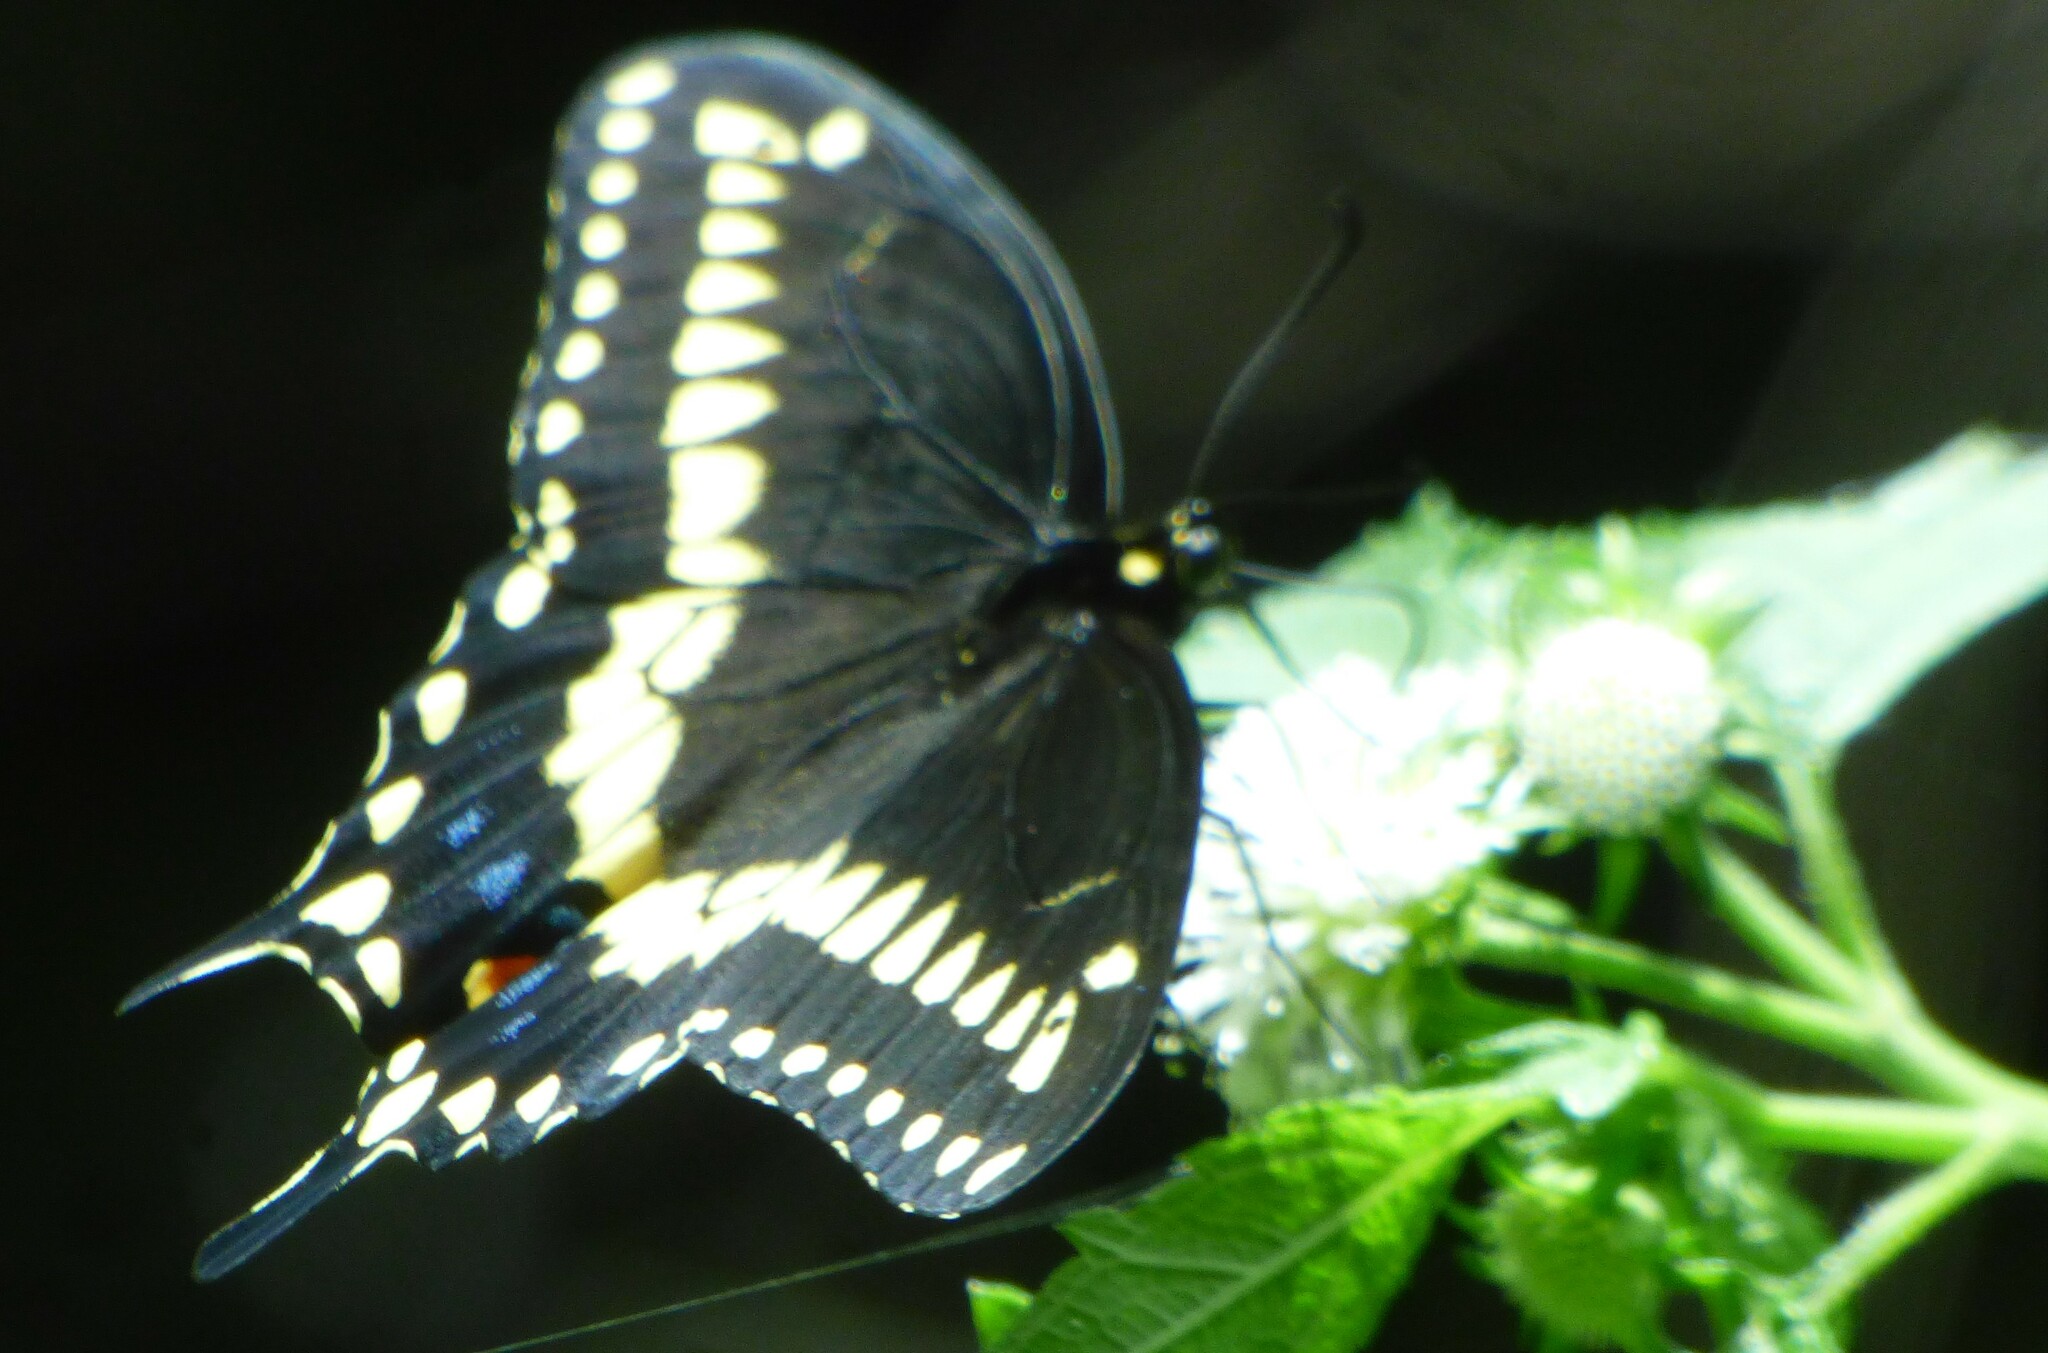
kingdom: Animalia
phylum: Arthropoda
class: Insecta
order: Lepidoptera
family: Papilionidae
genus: Papilio
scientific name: Papilio polyxenes
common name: Black swallowtail
